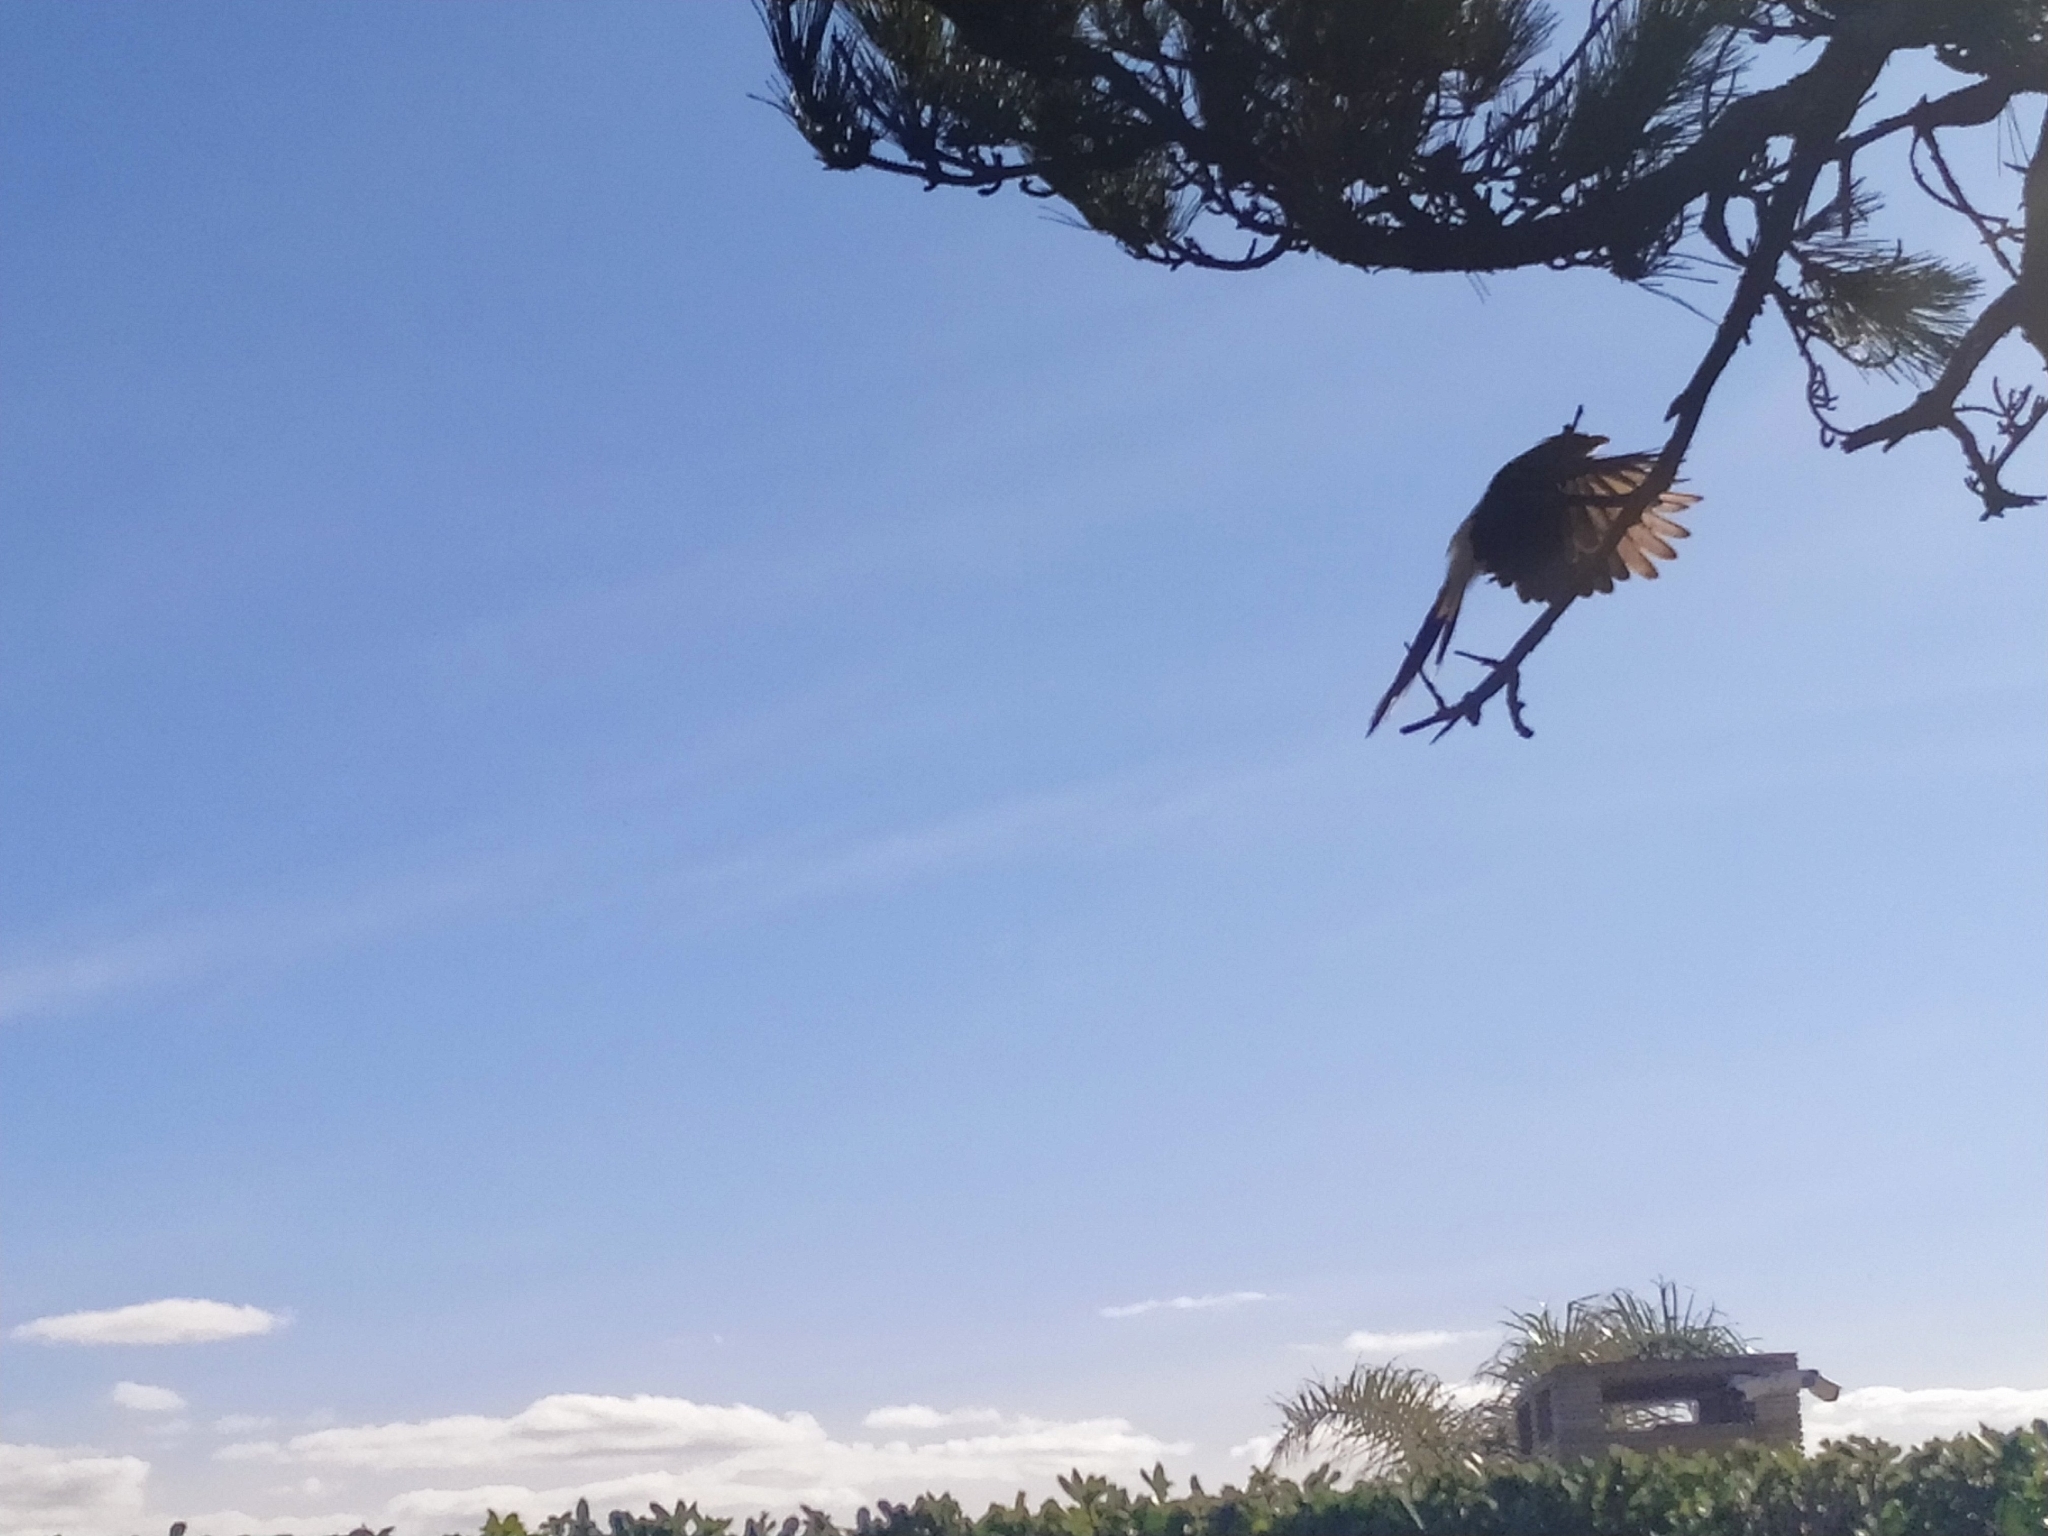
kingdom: Animalia
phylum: Chordata
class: Aves
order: Cuculiformes
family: Cuculidae
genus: Guira
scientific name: Guira guira
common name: Guira cuckoo
